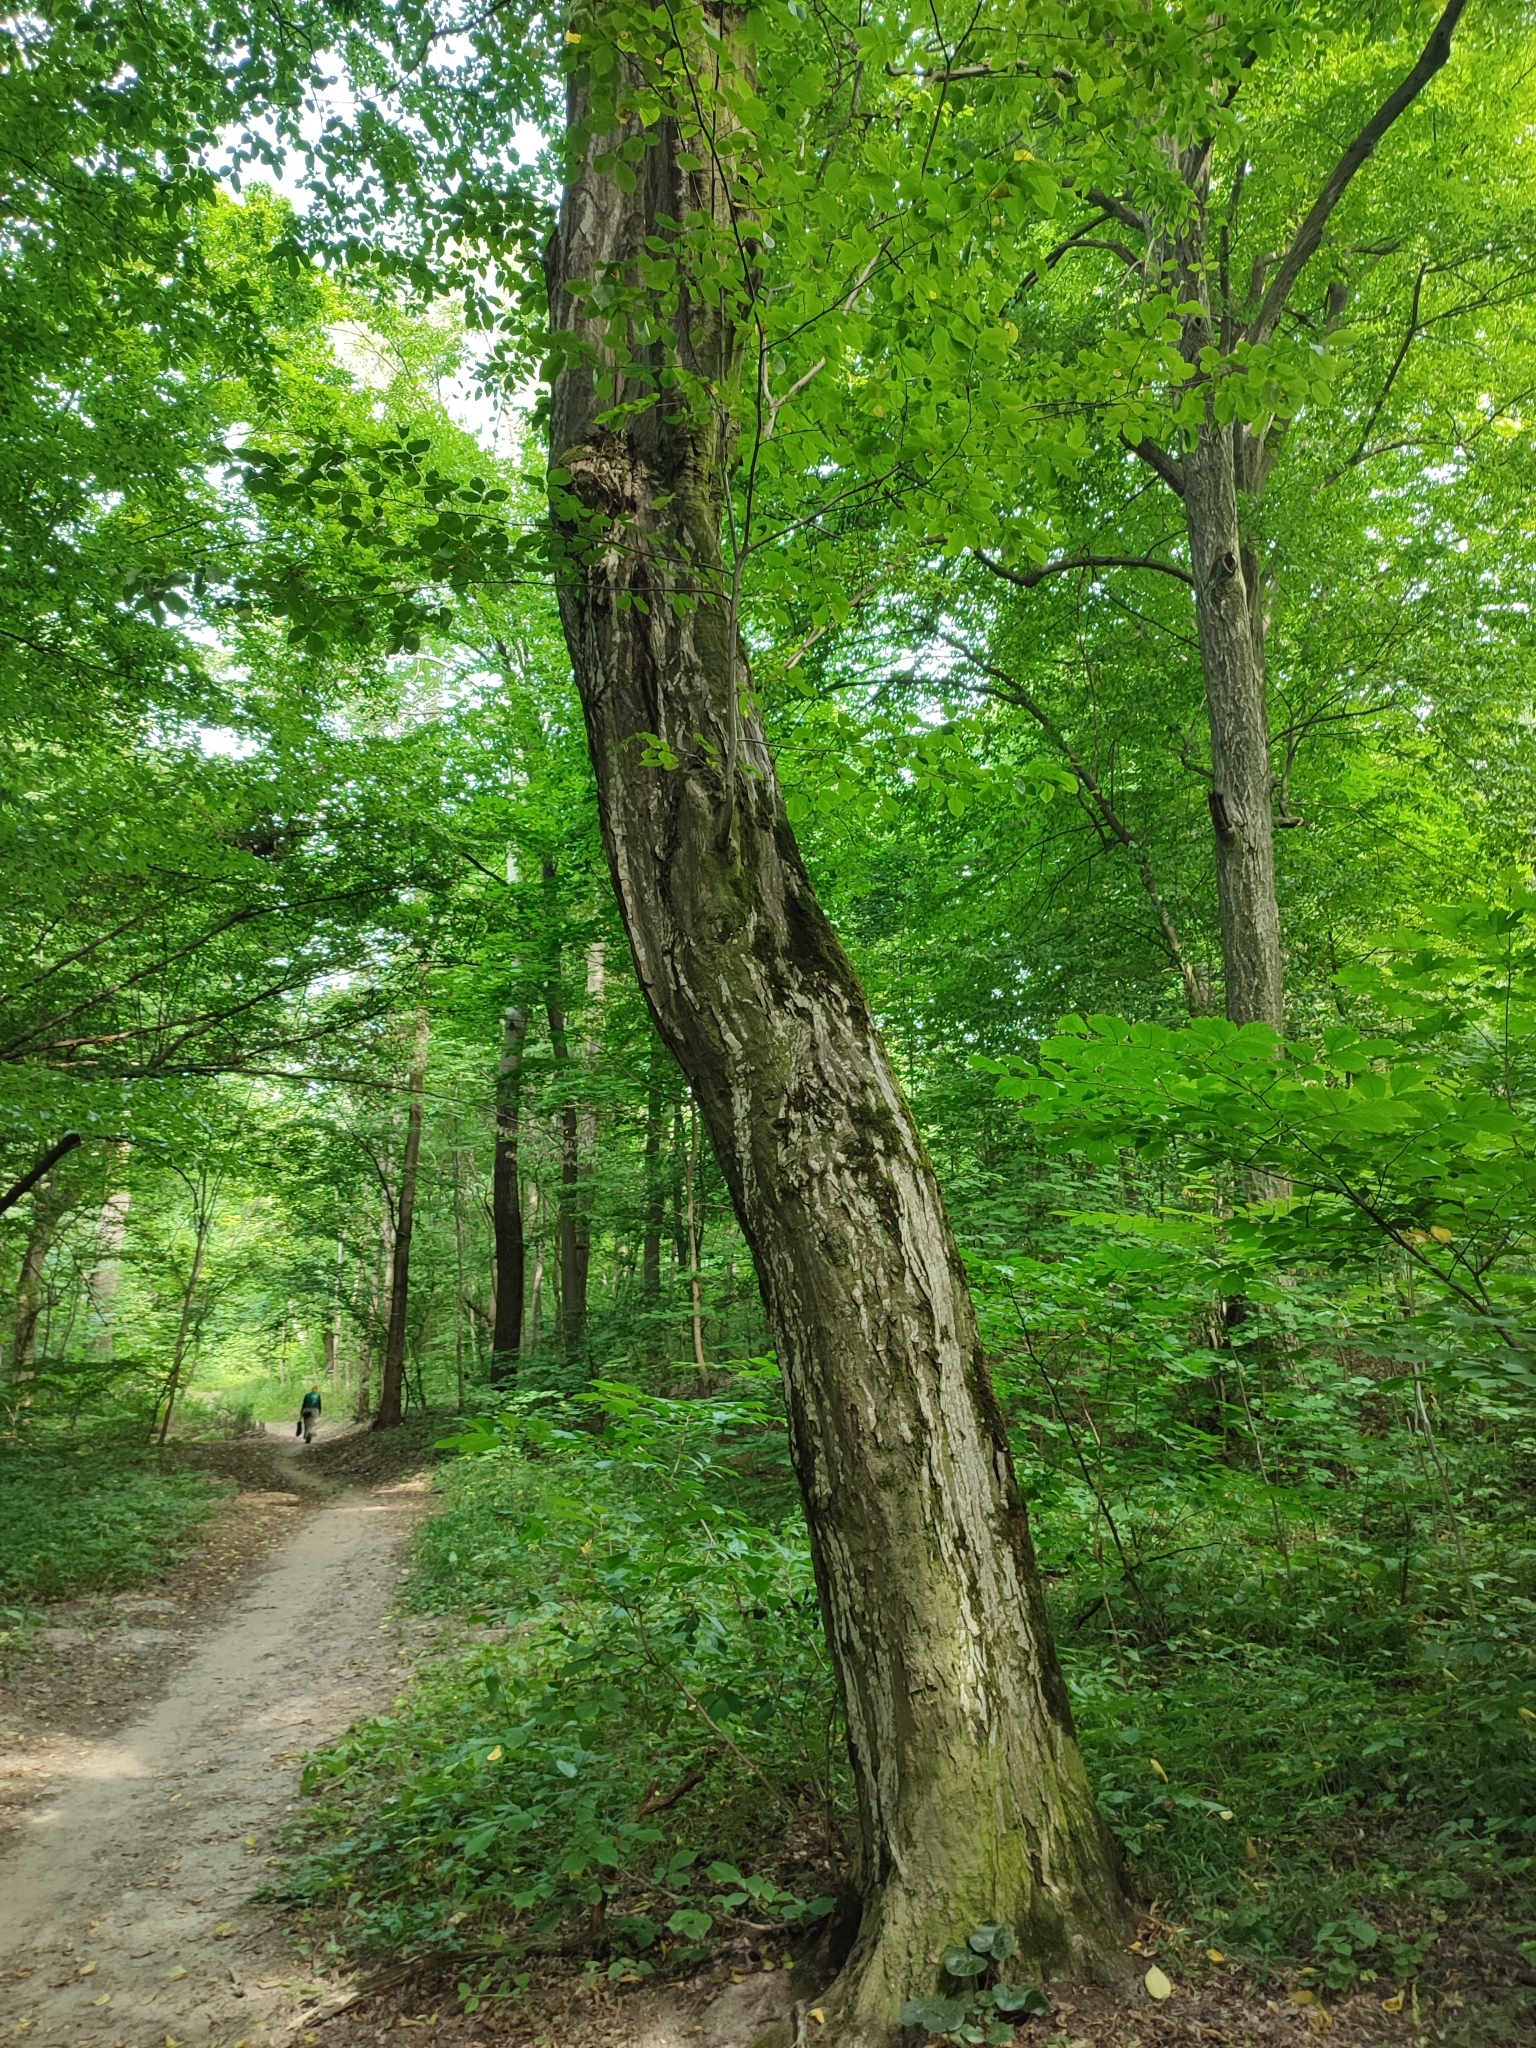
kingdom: Plantae
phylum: Tracheophyta
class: Magnoliopsida
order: Fagales
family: Betulaceae
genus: Carpinus
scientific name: Carpinus betulus
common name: Hornbeam
